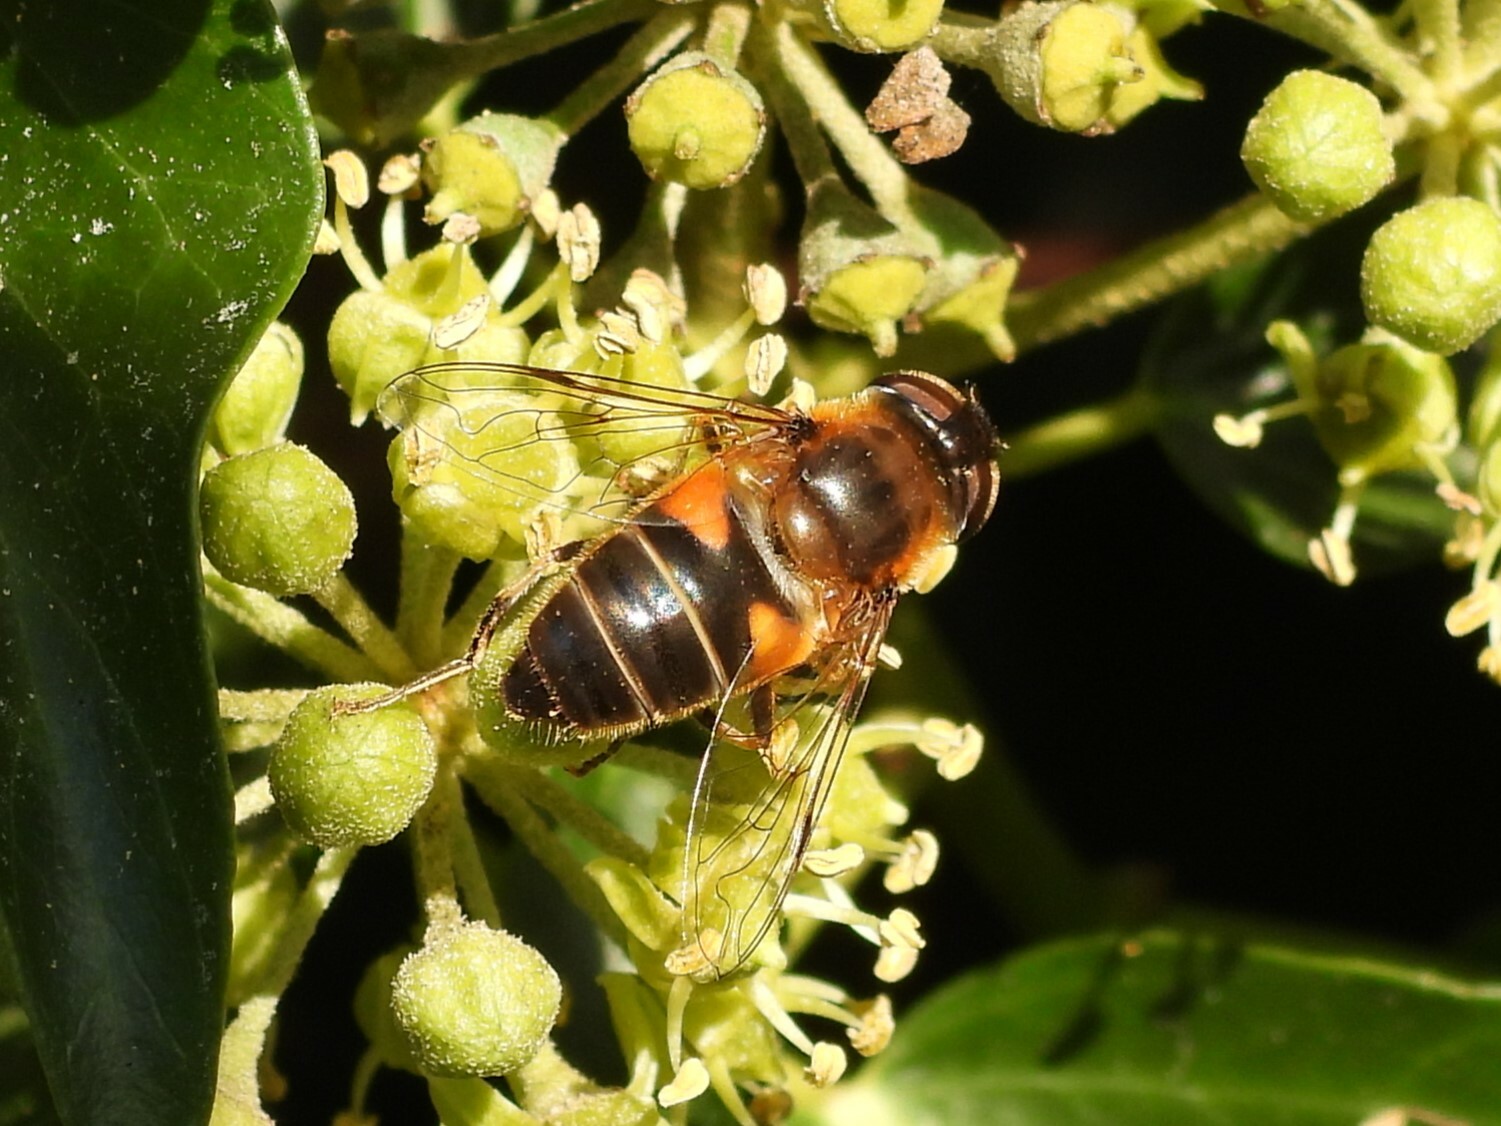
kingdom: Animalia
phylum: Arthropoda
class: Insecta
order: Diptera
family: Syrphidae
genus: Eristalis
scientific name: Eristalis pertinax
